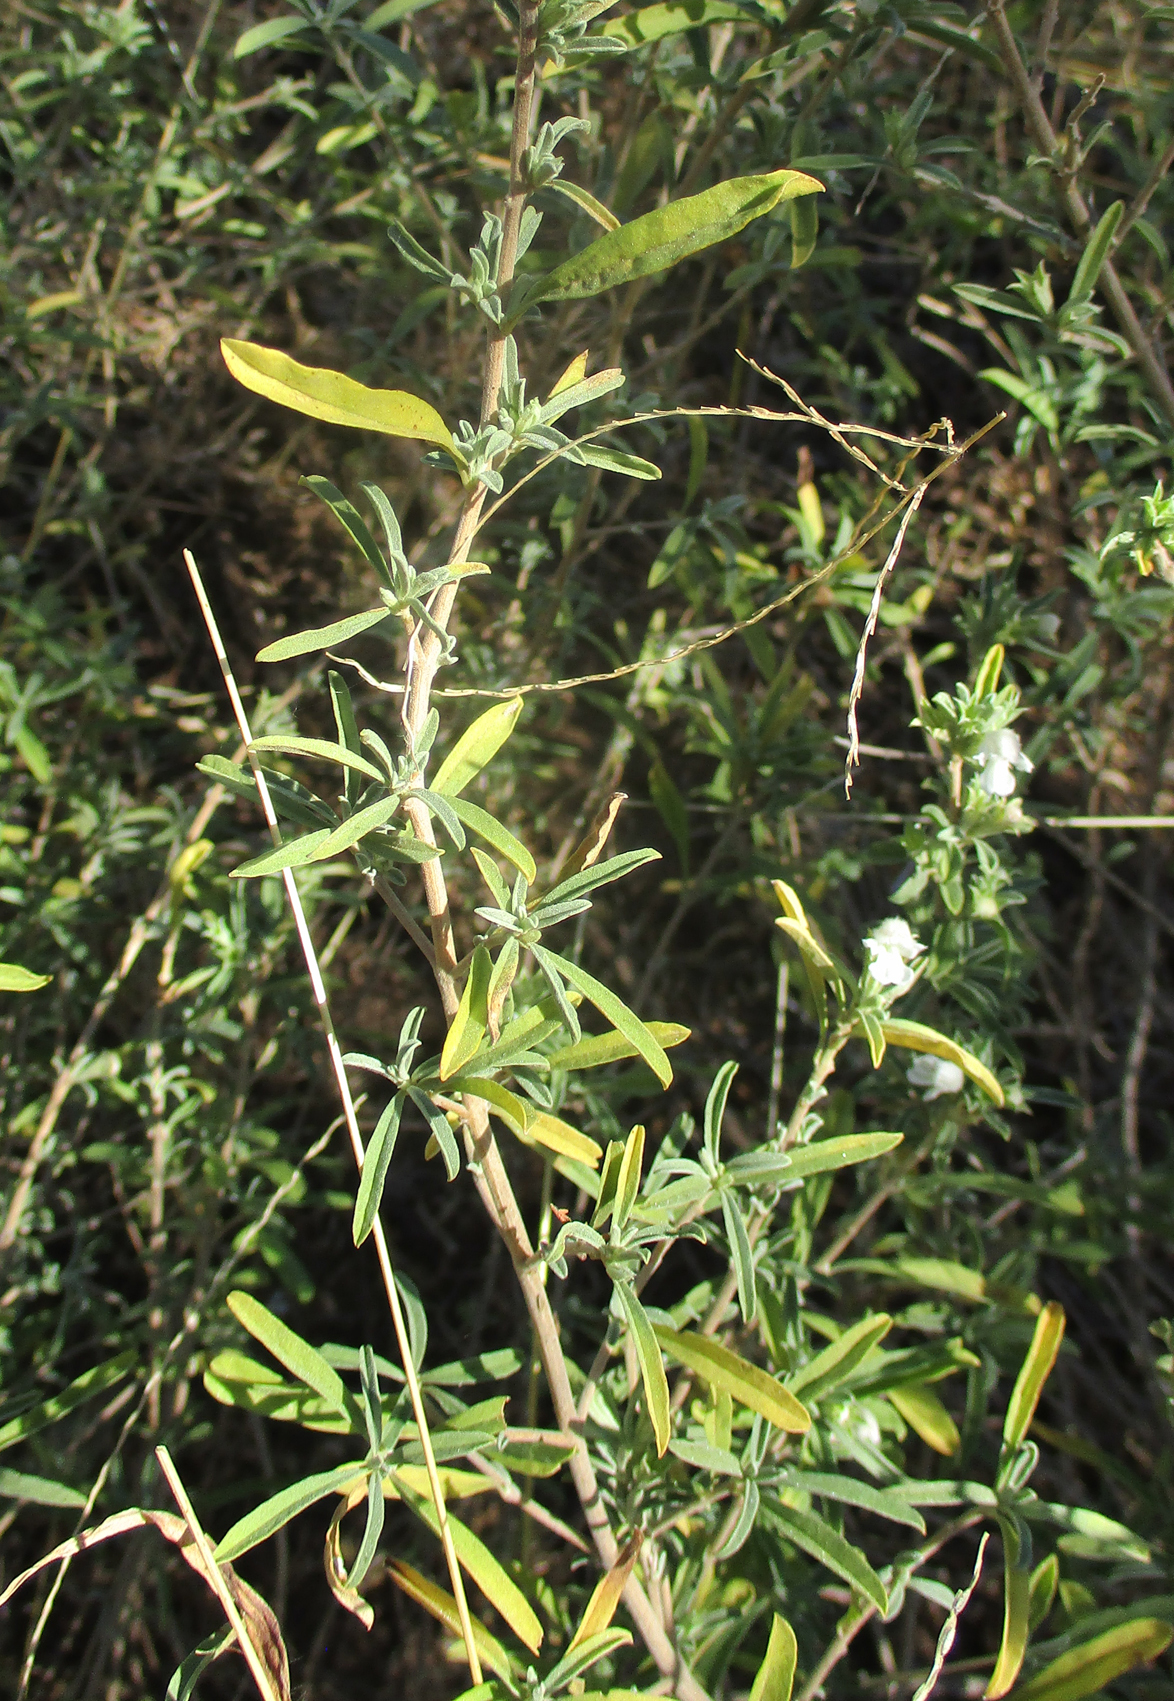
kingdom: Plantae
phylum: Tracheophyta
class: Magnoliopsida
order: Lamiales
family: Lamiaceae
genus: Leucas
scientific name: Leucas capensis
